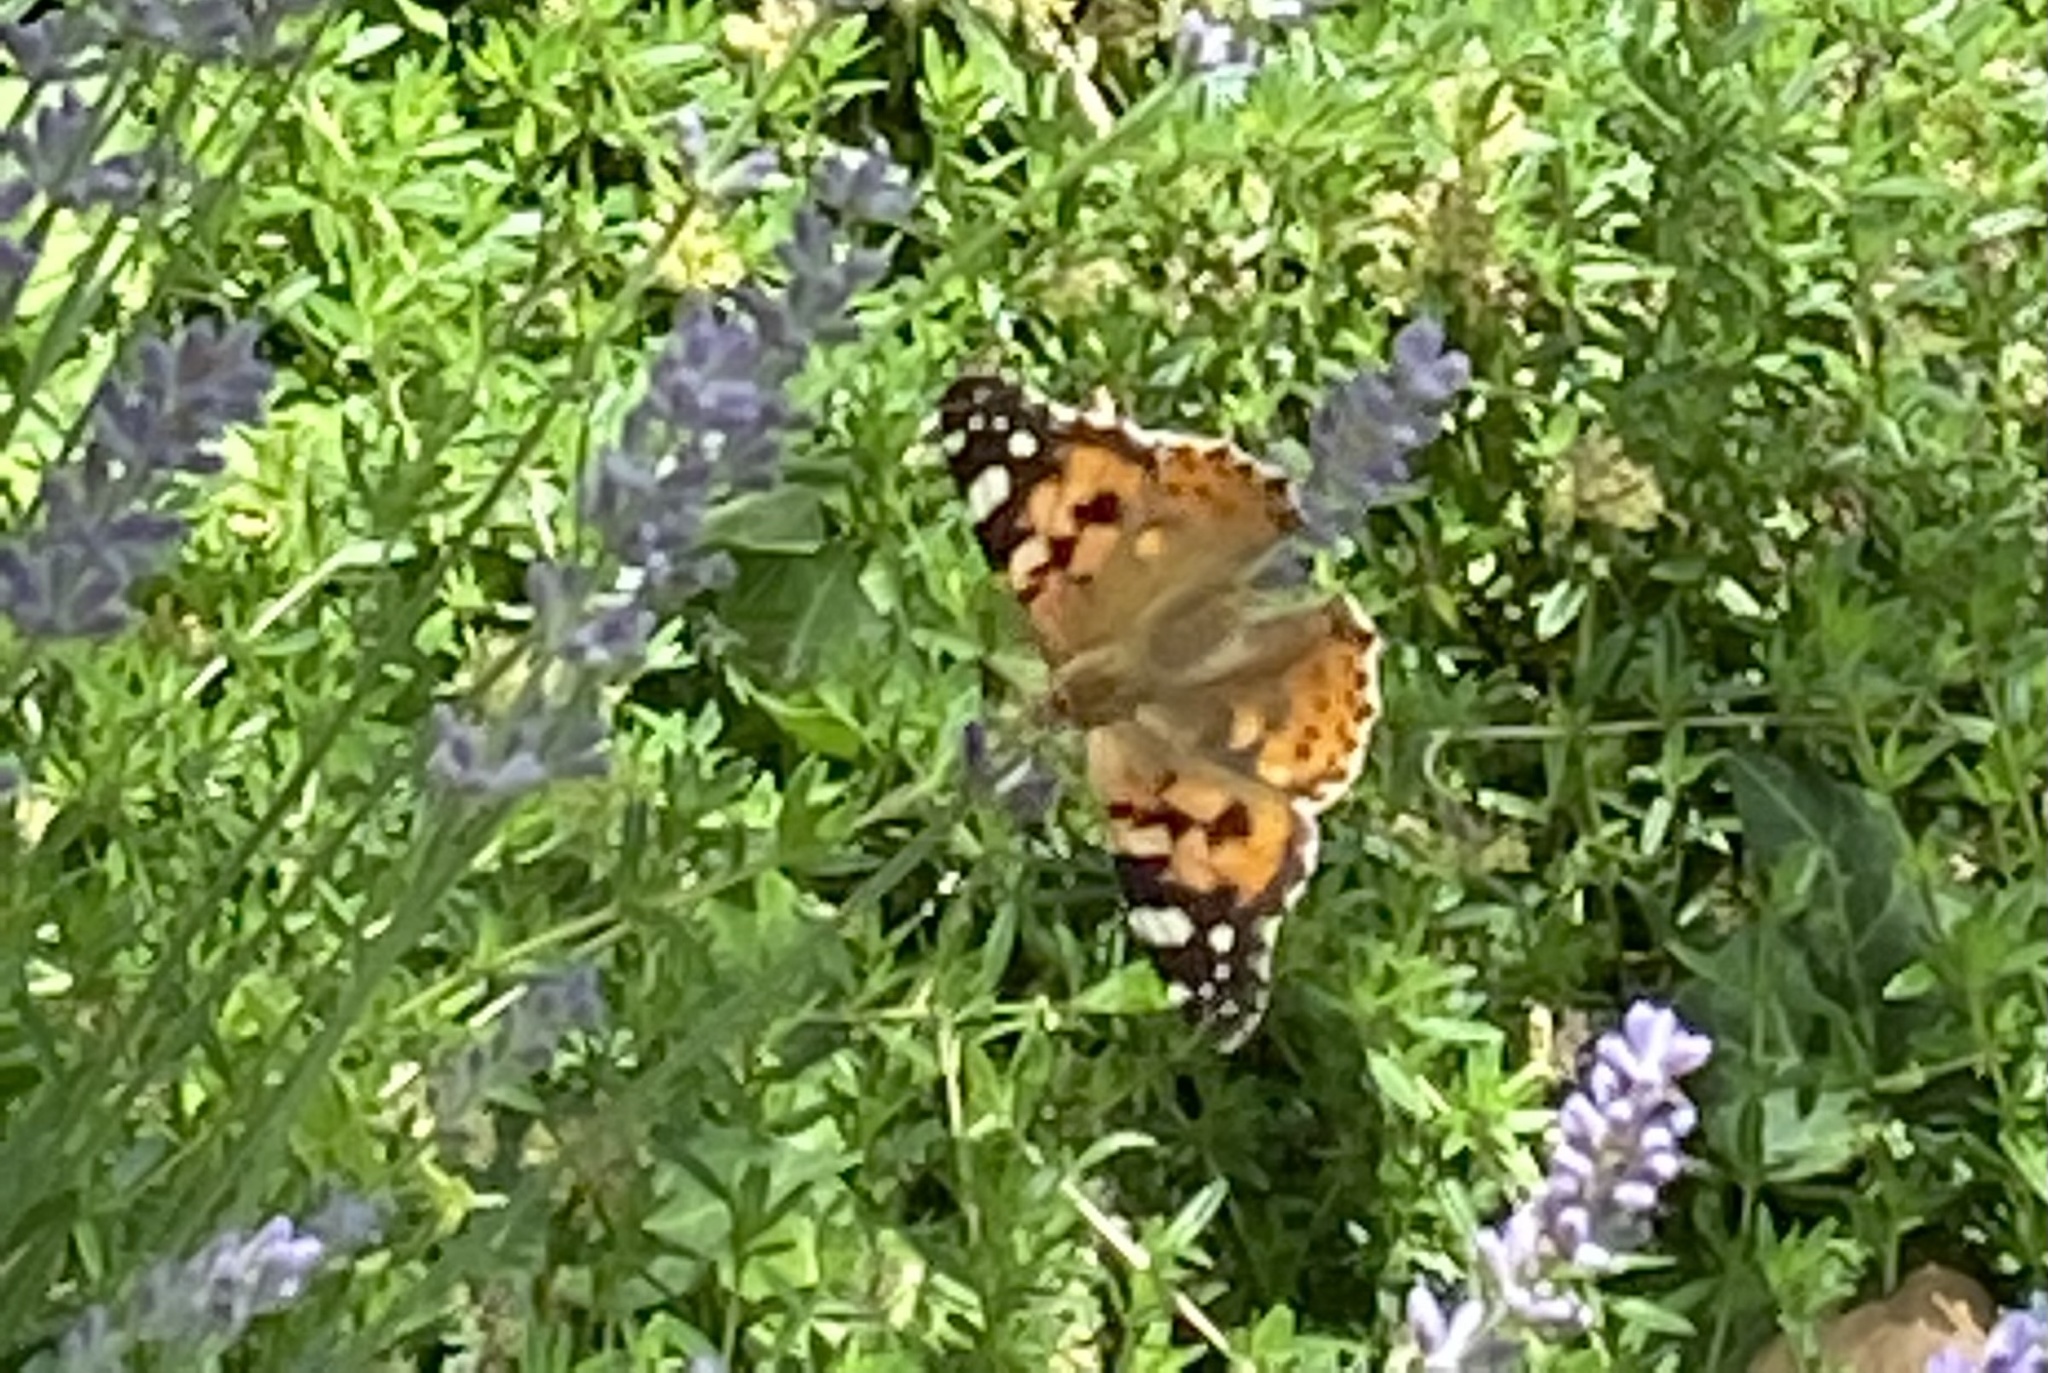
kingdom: Animalia
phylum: Arthropoda
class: Insecta
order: Lepidoptera
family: Nymphalidae
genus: Vanessa
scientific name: Vanessa cardui
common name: Painted lady
